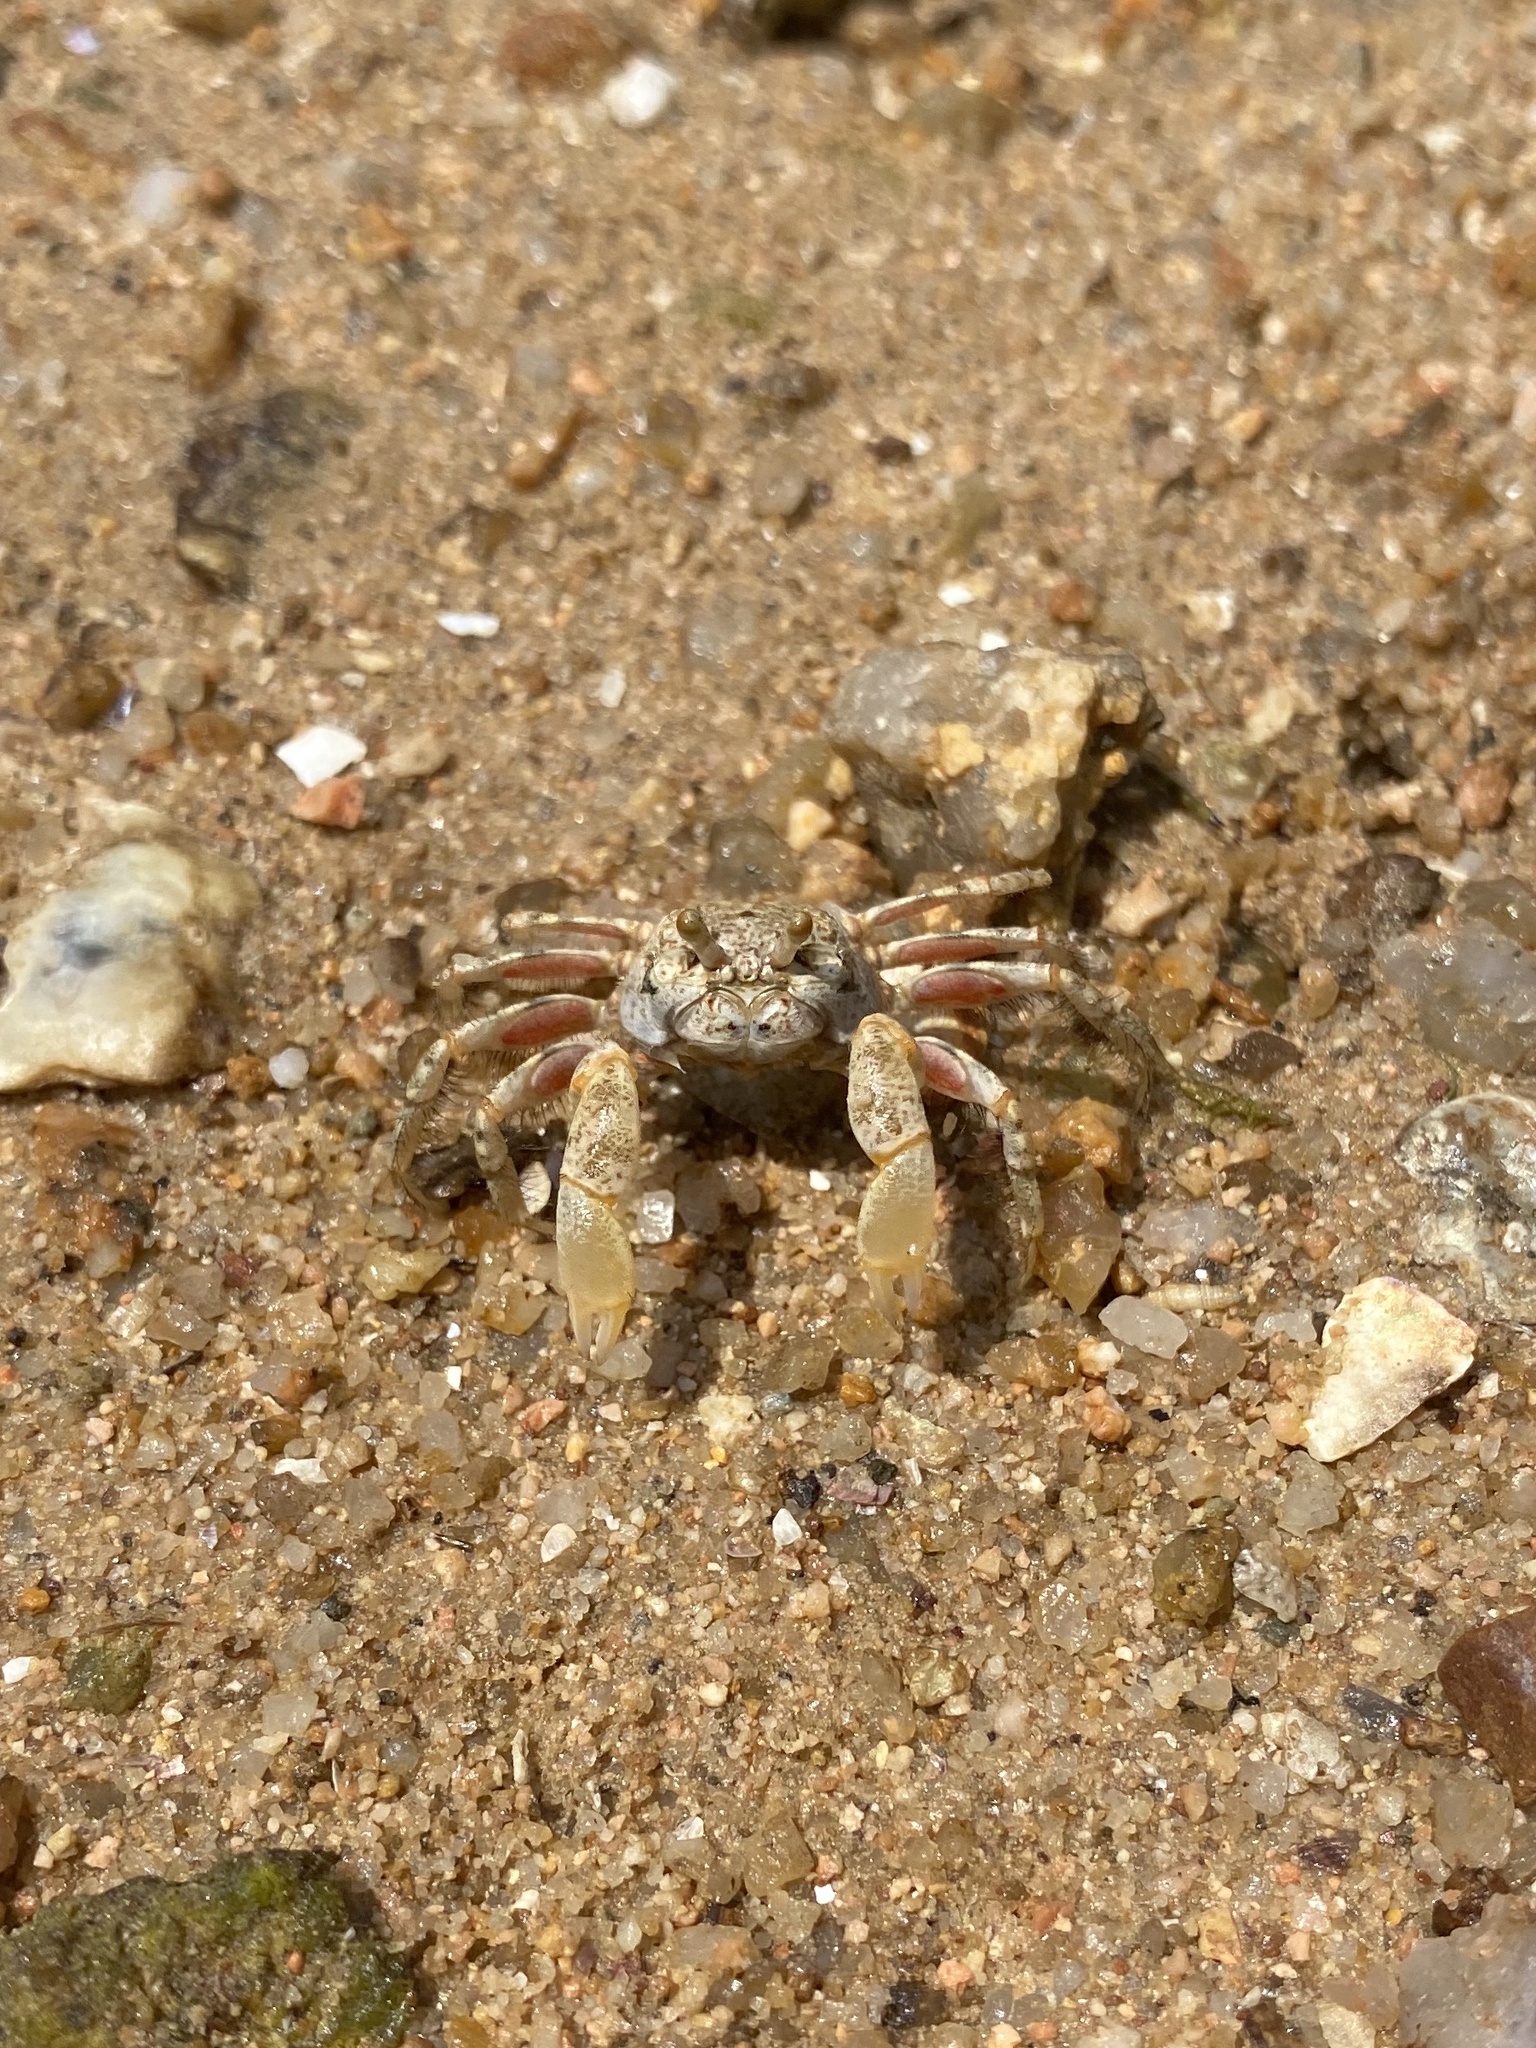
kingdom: Animalia
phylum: Arthropoda
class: Malacostraca
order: Decapoda
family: Dotillidae
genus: Scopimera
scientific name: Scopimera intermedia
